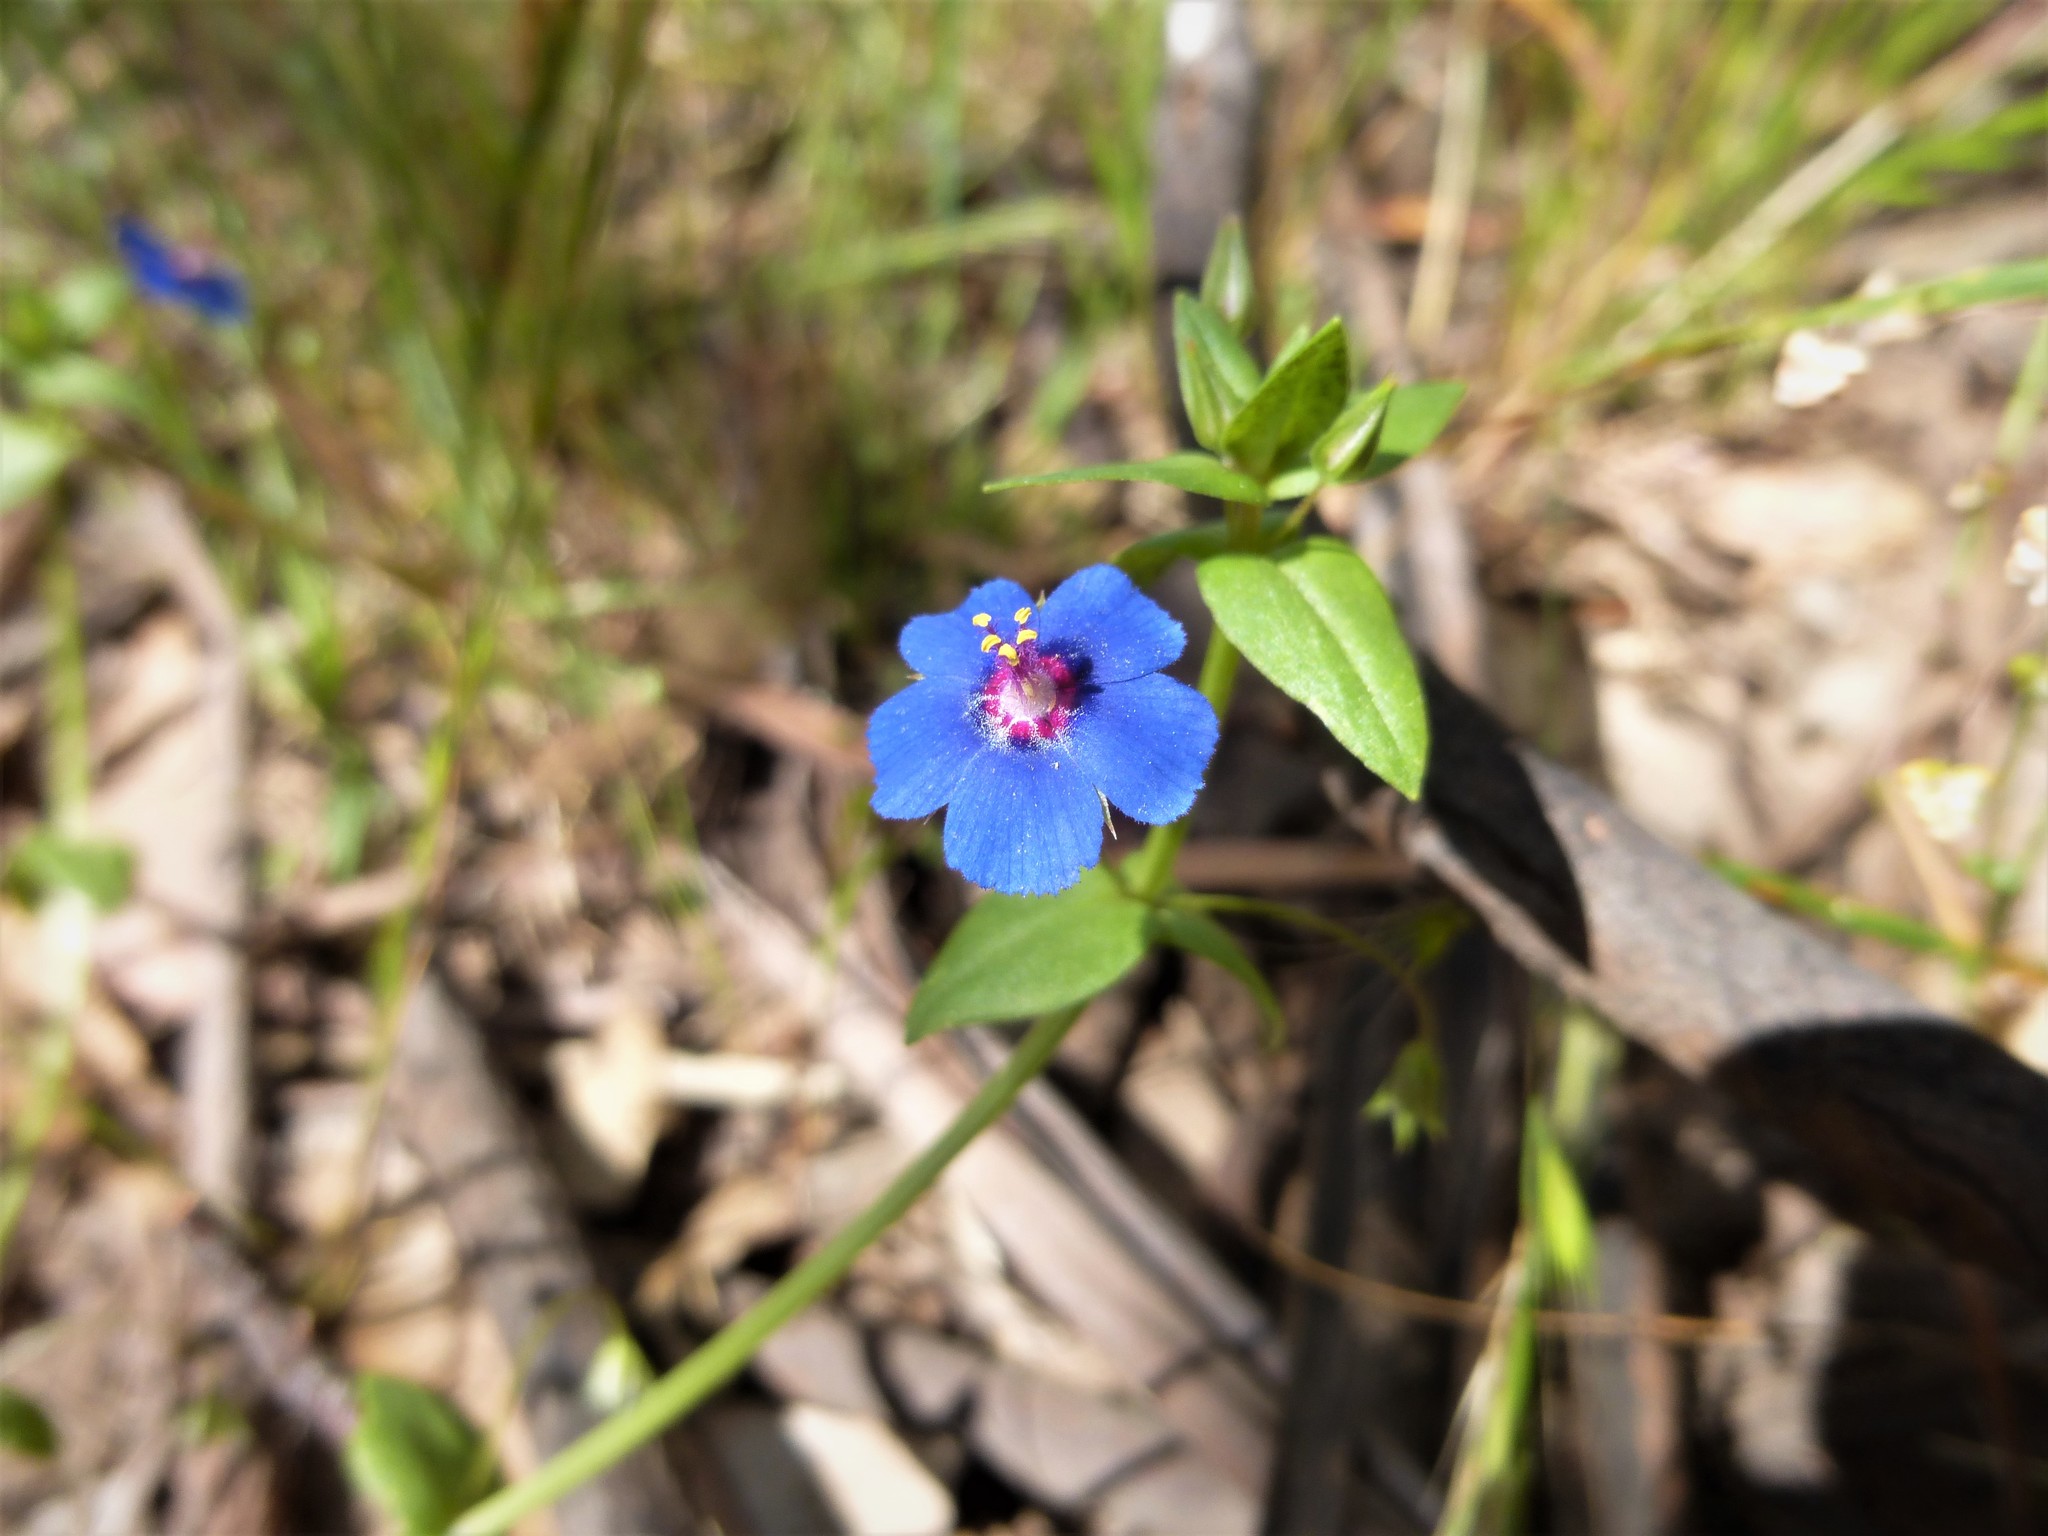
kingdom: Plantae
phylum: Tracheophyta
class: Magnoliopsida
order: Ericales
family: Primulaceae
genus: Lysimachia
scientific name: Lysimachia loeflingii
